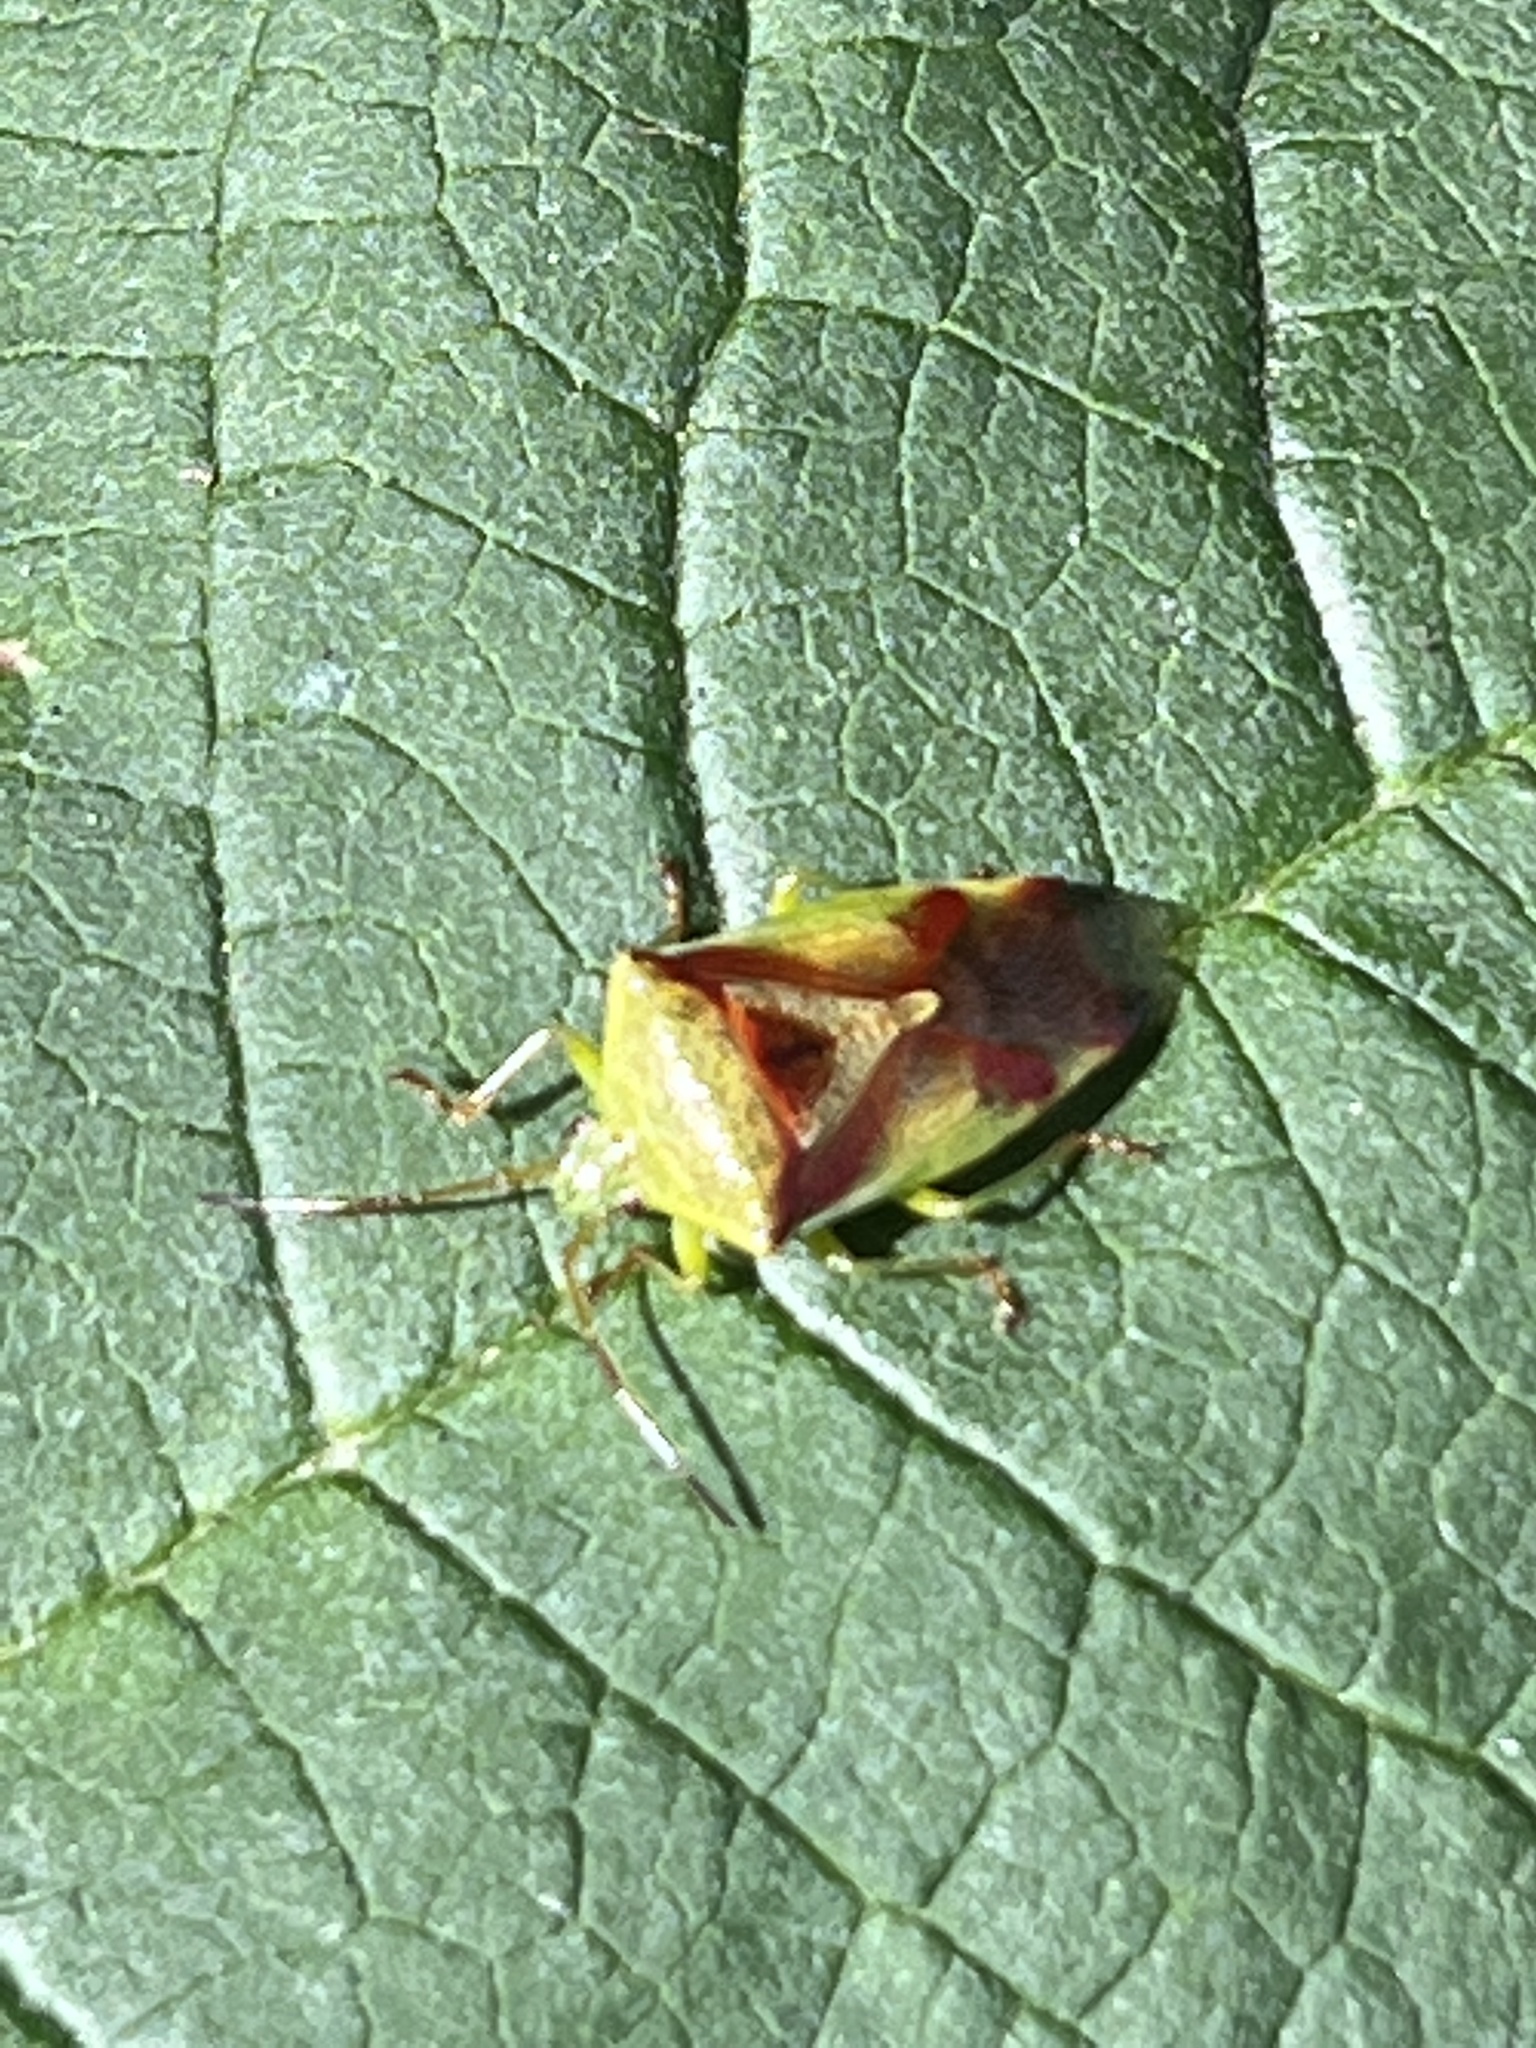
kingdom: Animalia
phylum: Arthropoda
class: Insecta
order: Hemiptera
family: Acanthosomatidae
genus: Elasmostethus
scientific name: Elasmostethus cruciatus
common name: Red-cross shield bug
